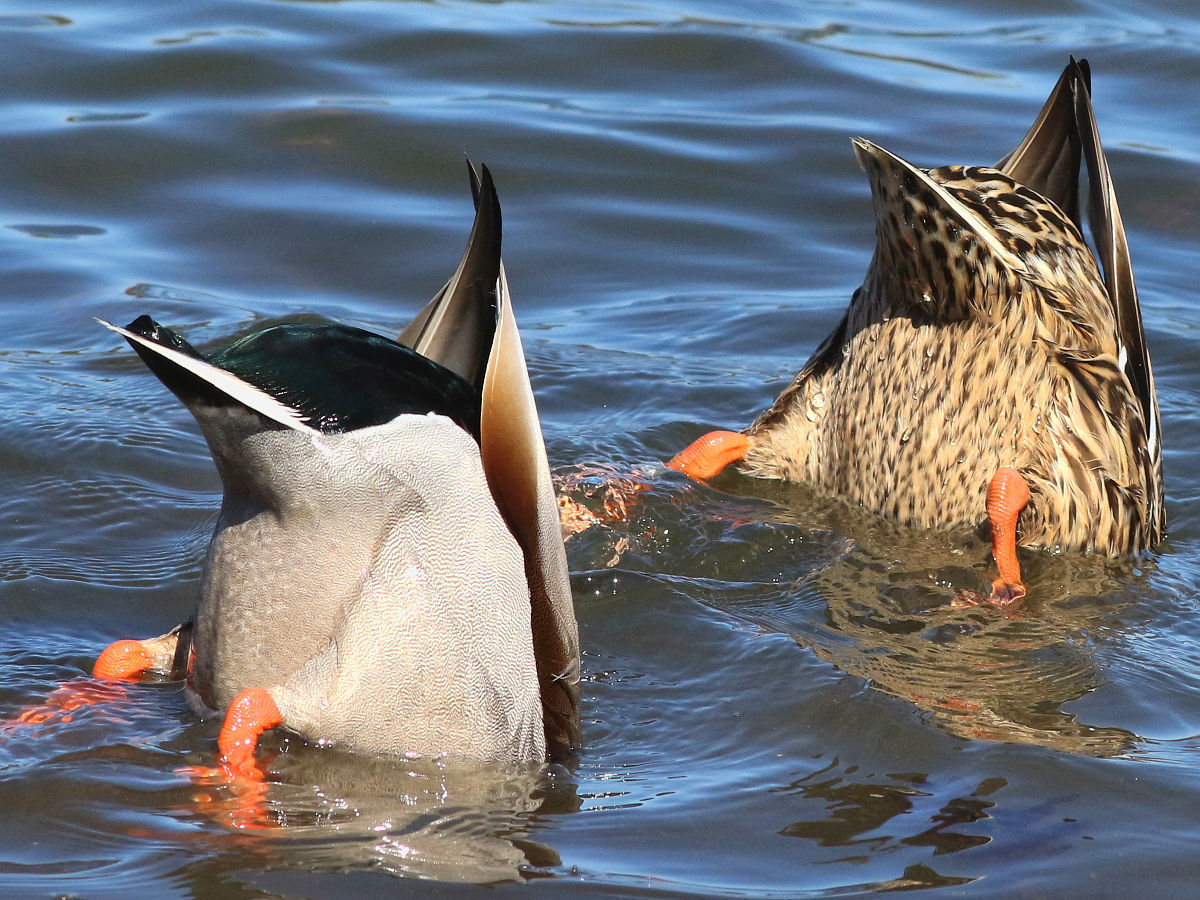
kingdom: Animalia
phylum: Chordata
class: Aves
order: Anseriformes
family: Anatidae
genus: Anas
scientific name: Anas platyrhynchos
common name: Mallard
